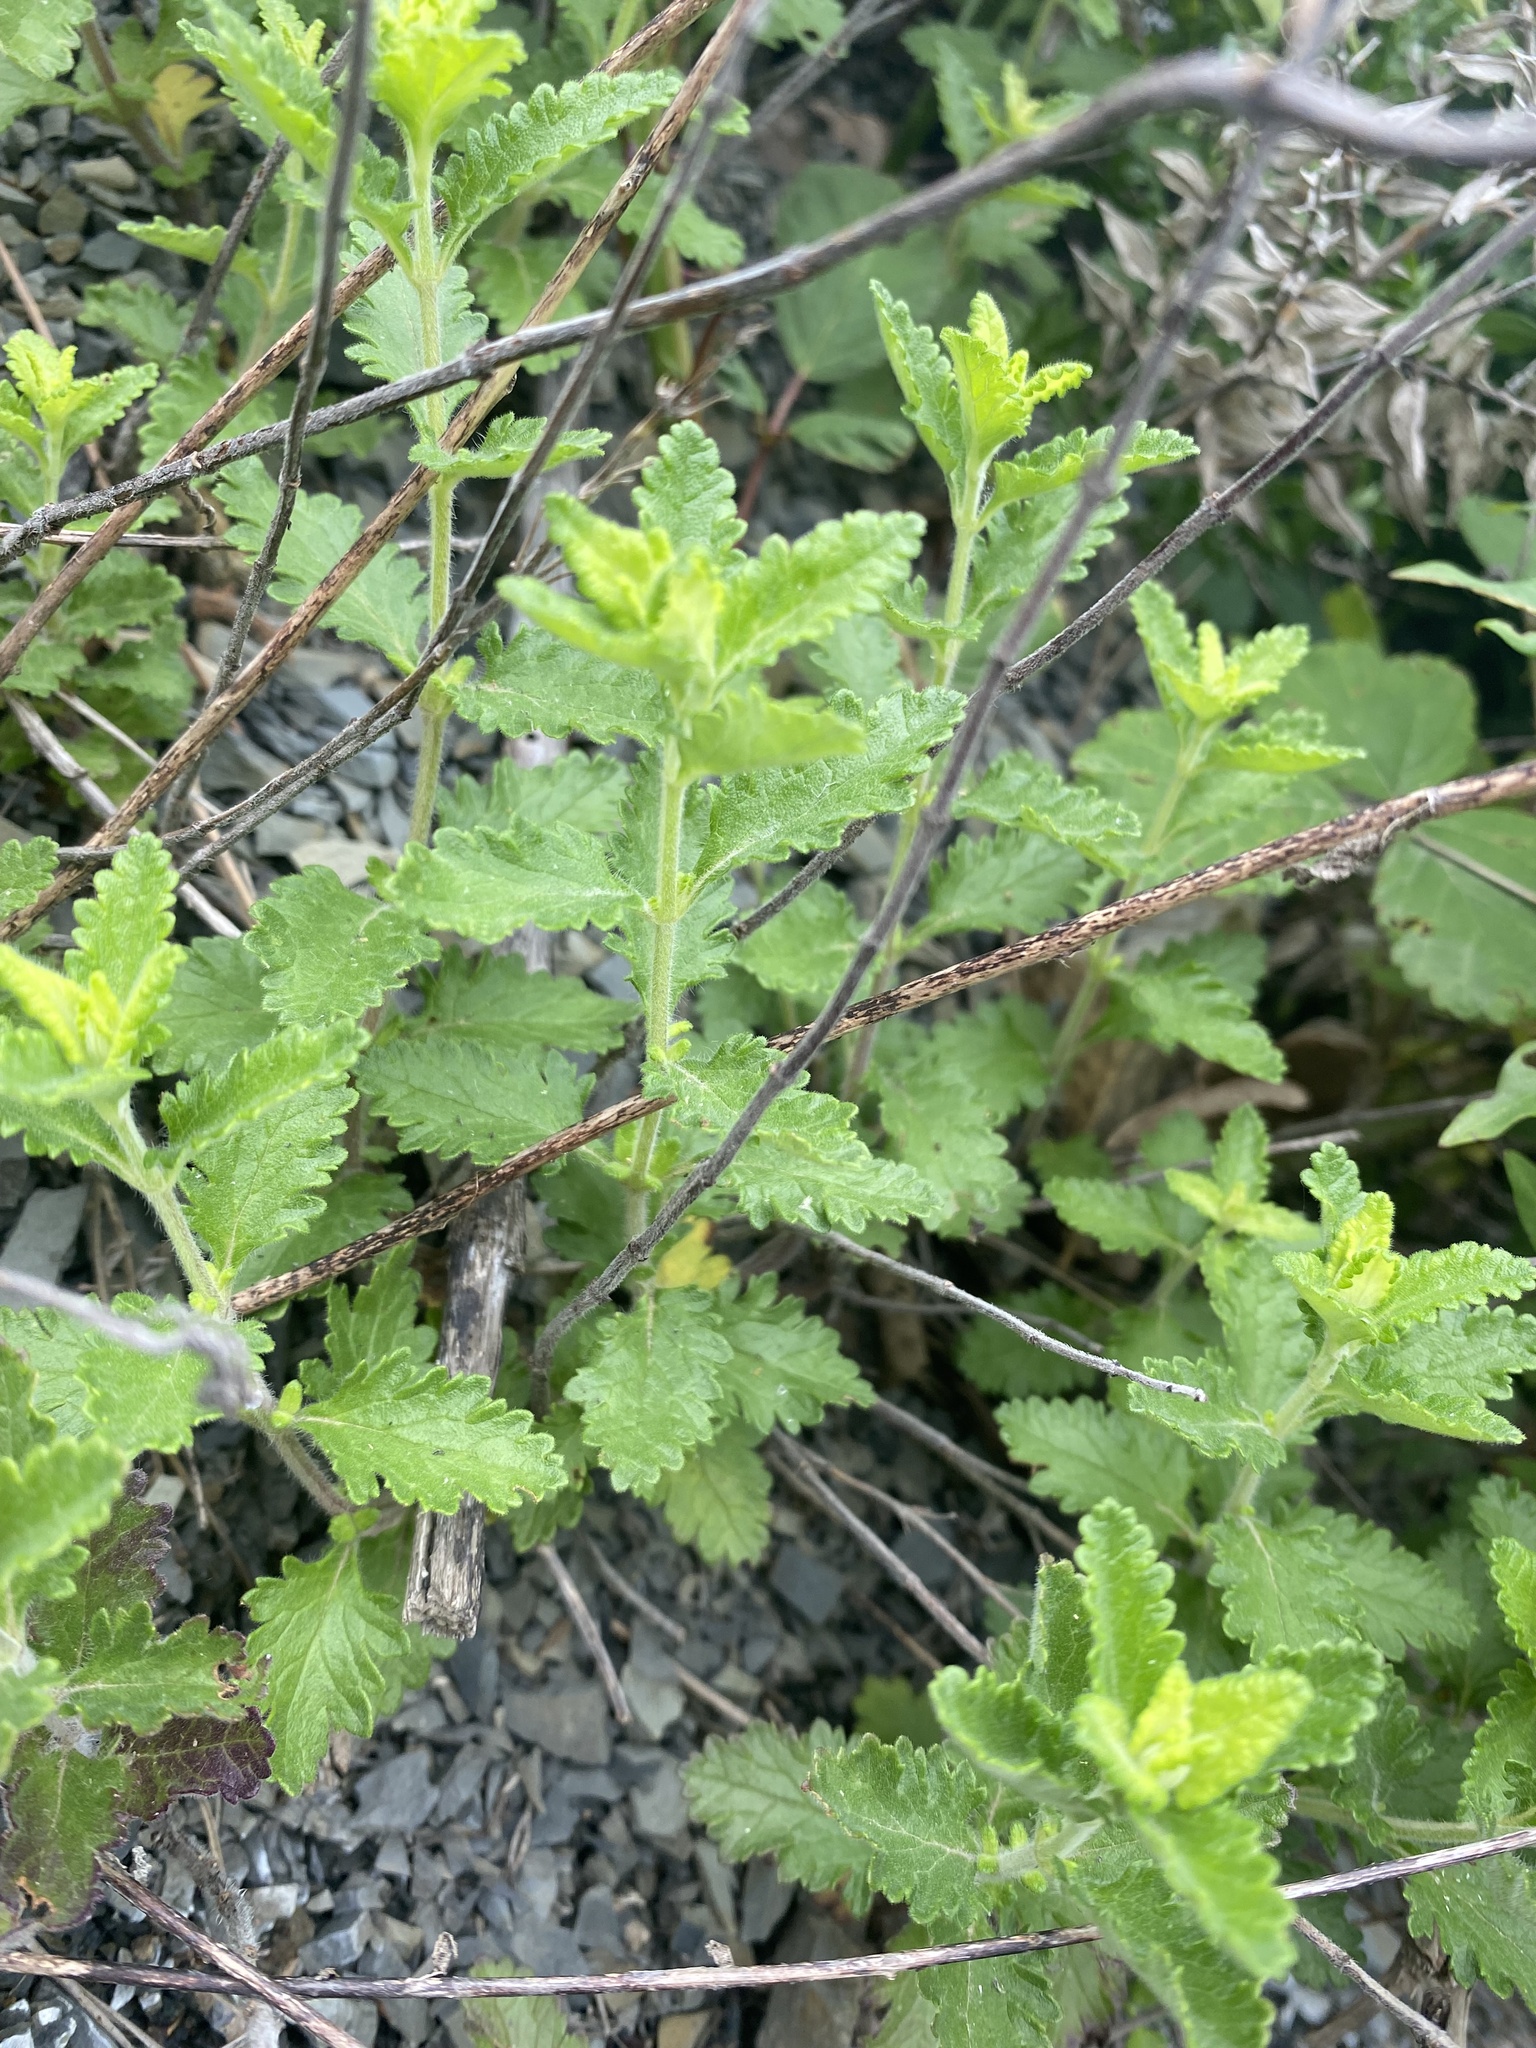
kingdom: Plantae
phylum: Tracheophyta
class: Magnoliopsida
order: Lamiales
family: Lamiaceae
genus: Teucrium
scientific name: Teucrium chamaedrys
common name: Wall germander
